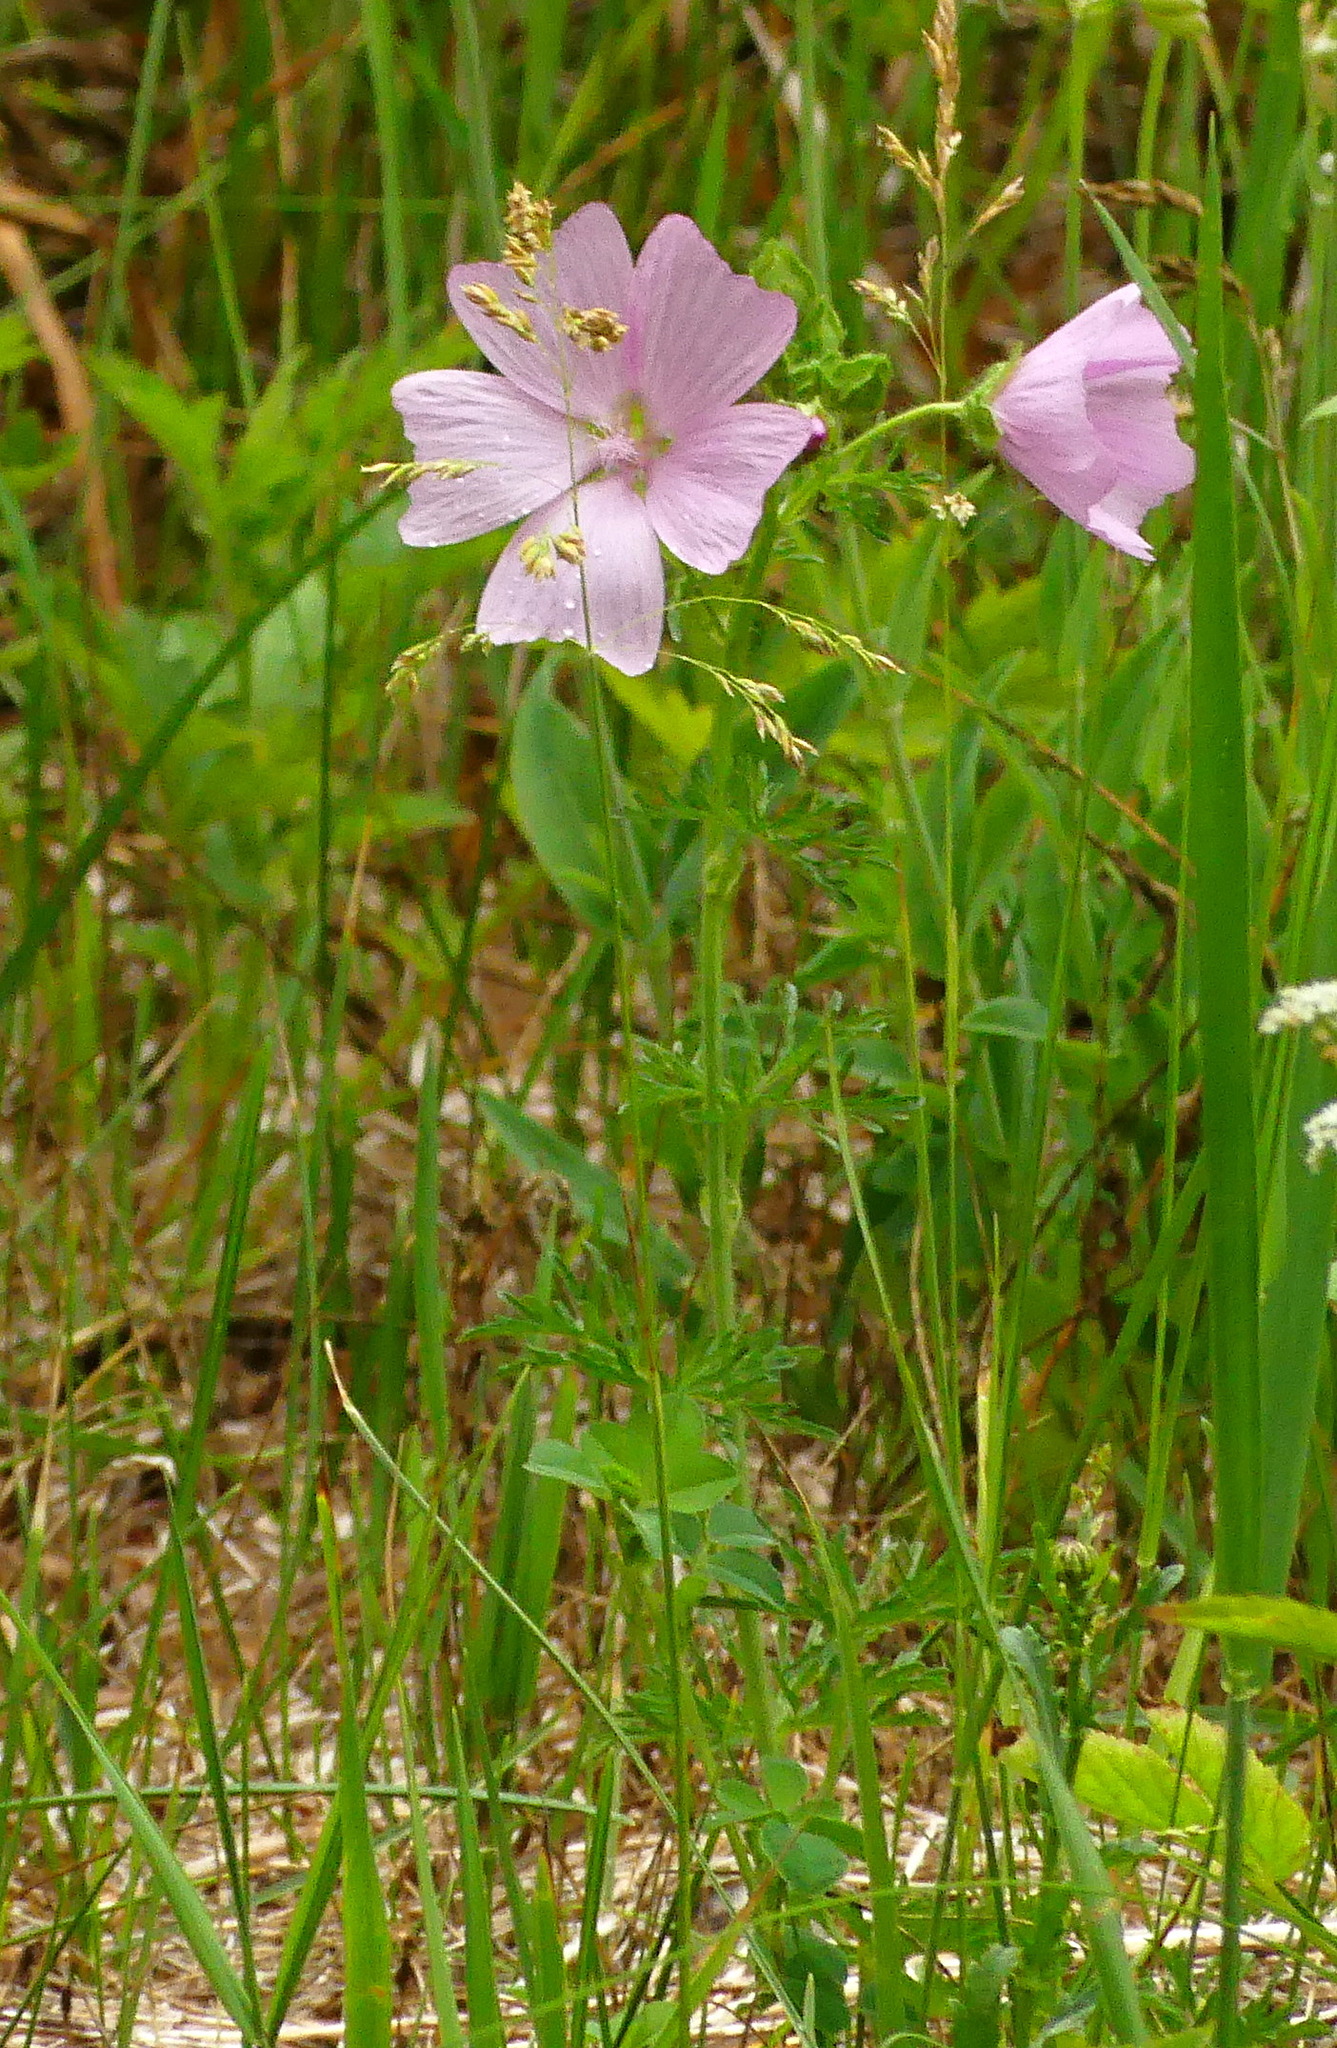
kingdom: Plantae
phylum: Tracheophyta
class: Magnoliopsida
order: Malvales
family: Malvaceae
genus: Malva
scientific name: Malva moschata
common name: Musk mallow
